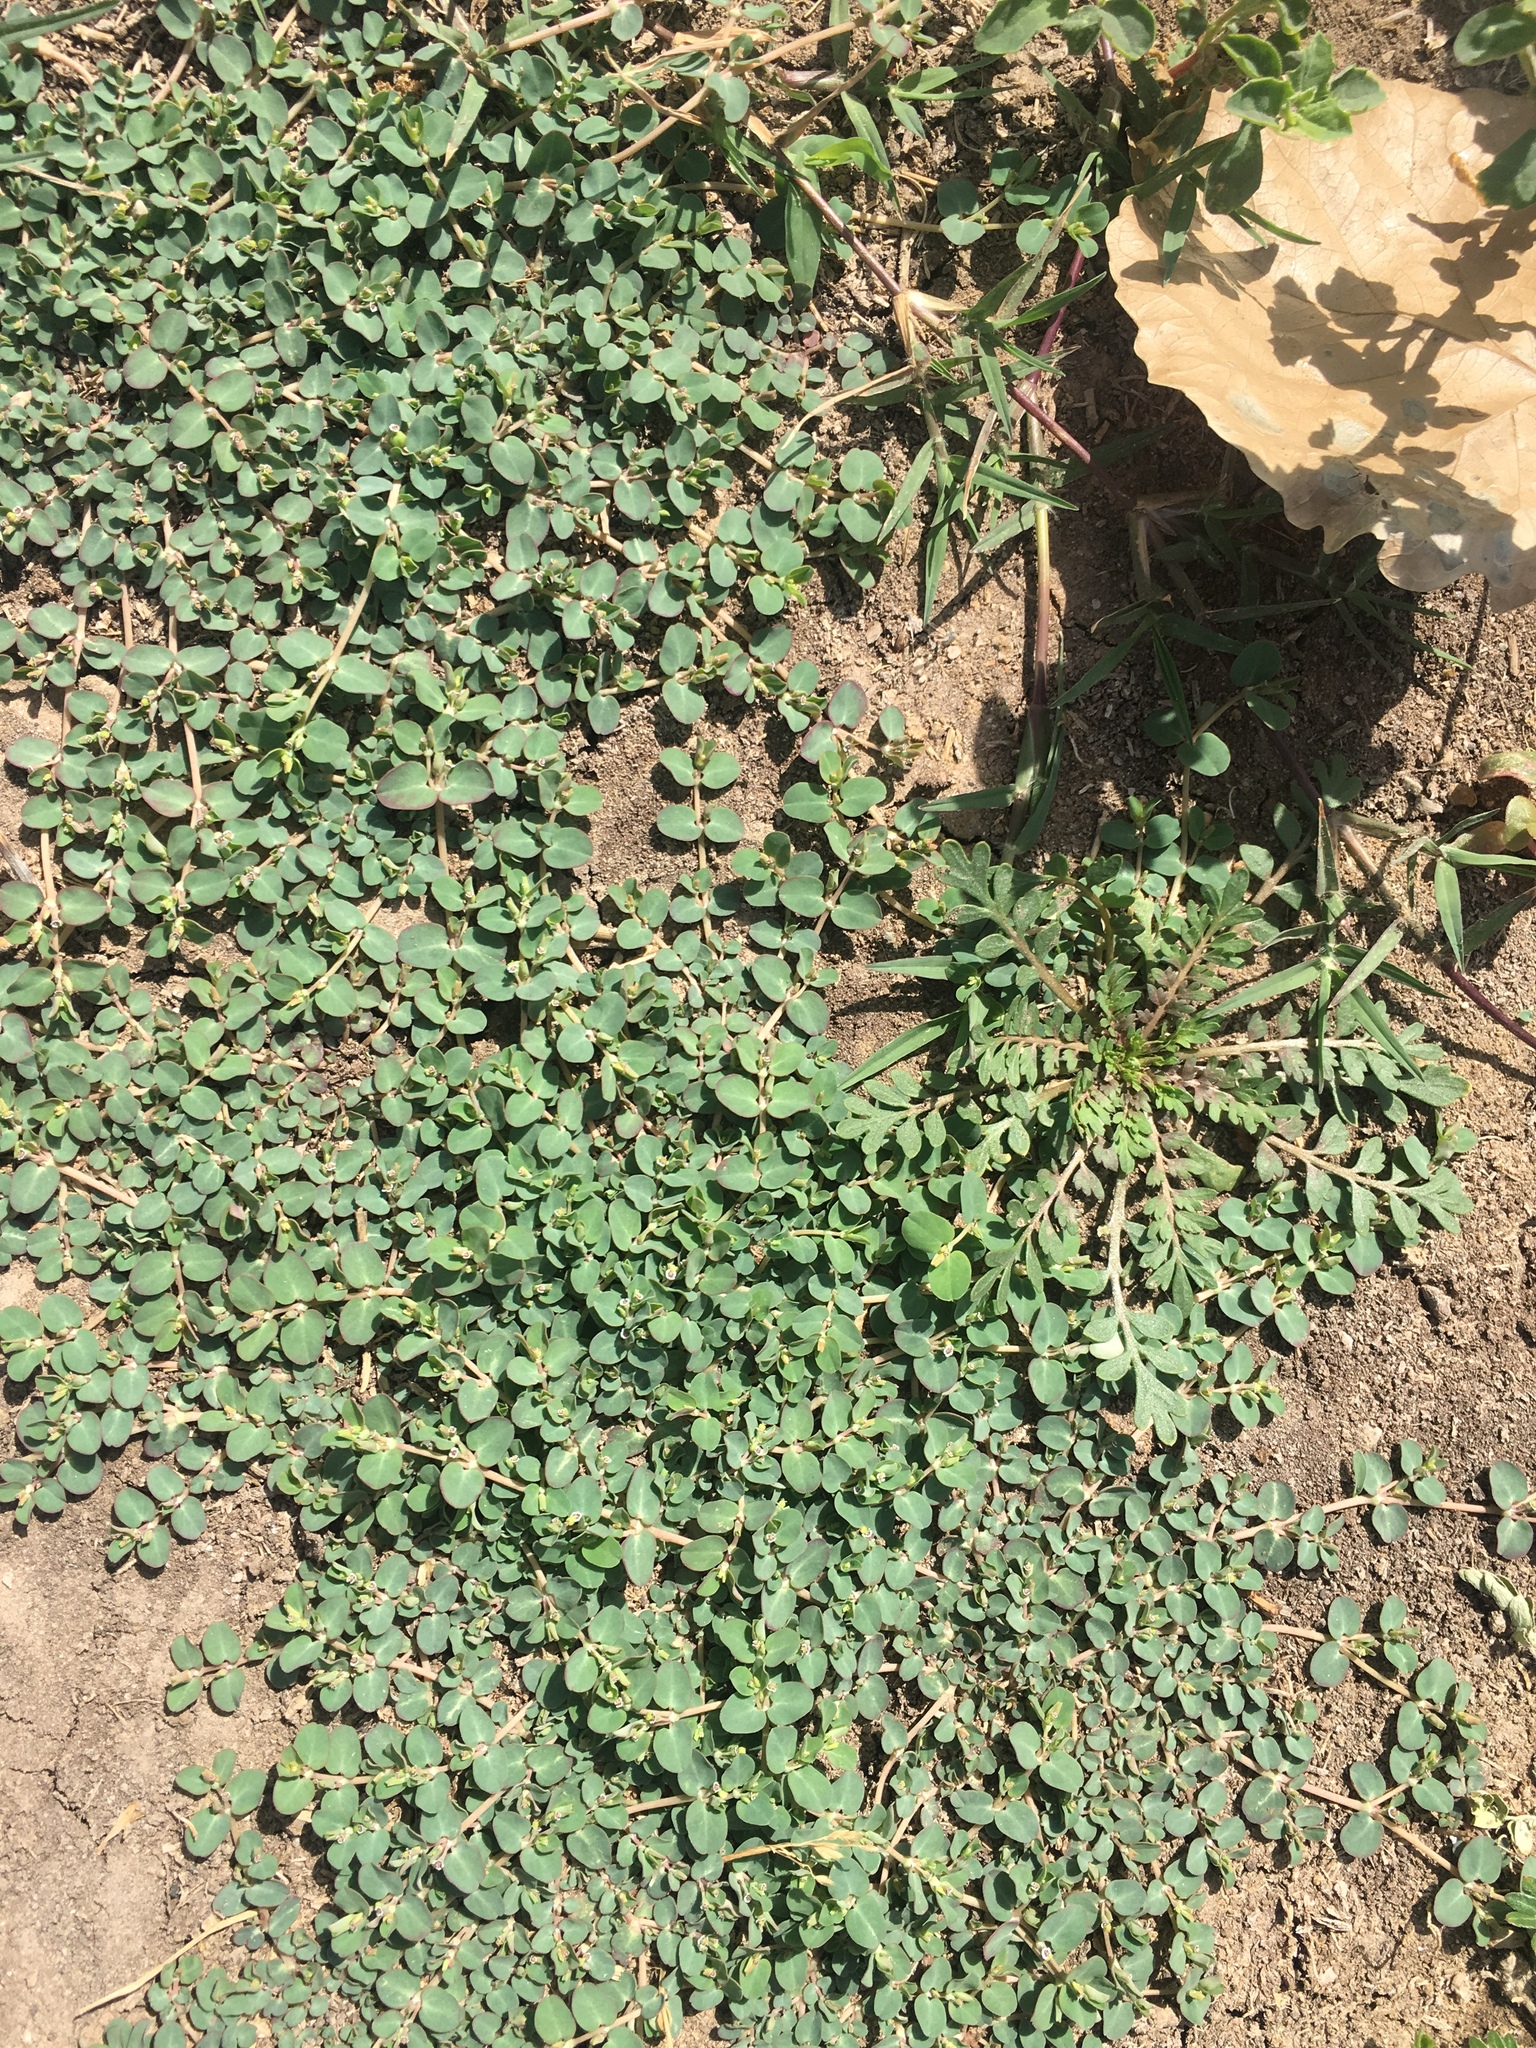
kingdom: Plantae
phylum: Tracheophyta
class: Magnoliopsida
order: Malpighiales
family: Euphorbiaceae
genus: Euphorbia
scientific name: Euphorbia serpens
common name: Matted sandmat
